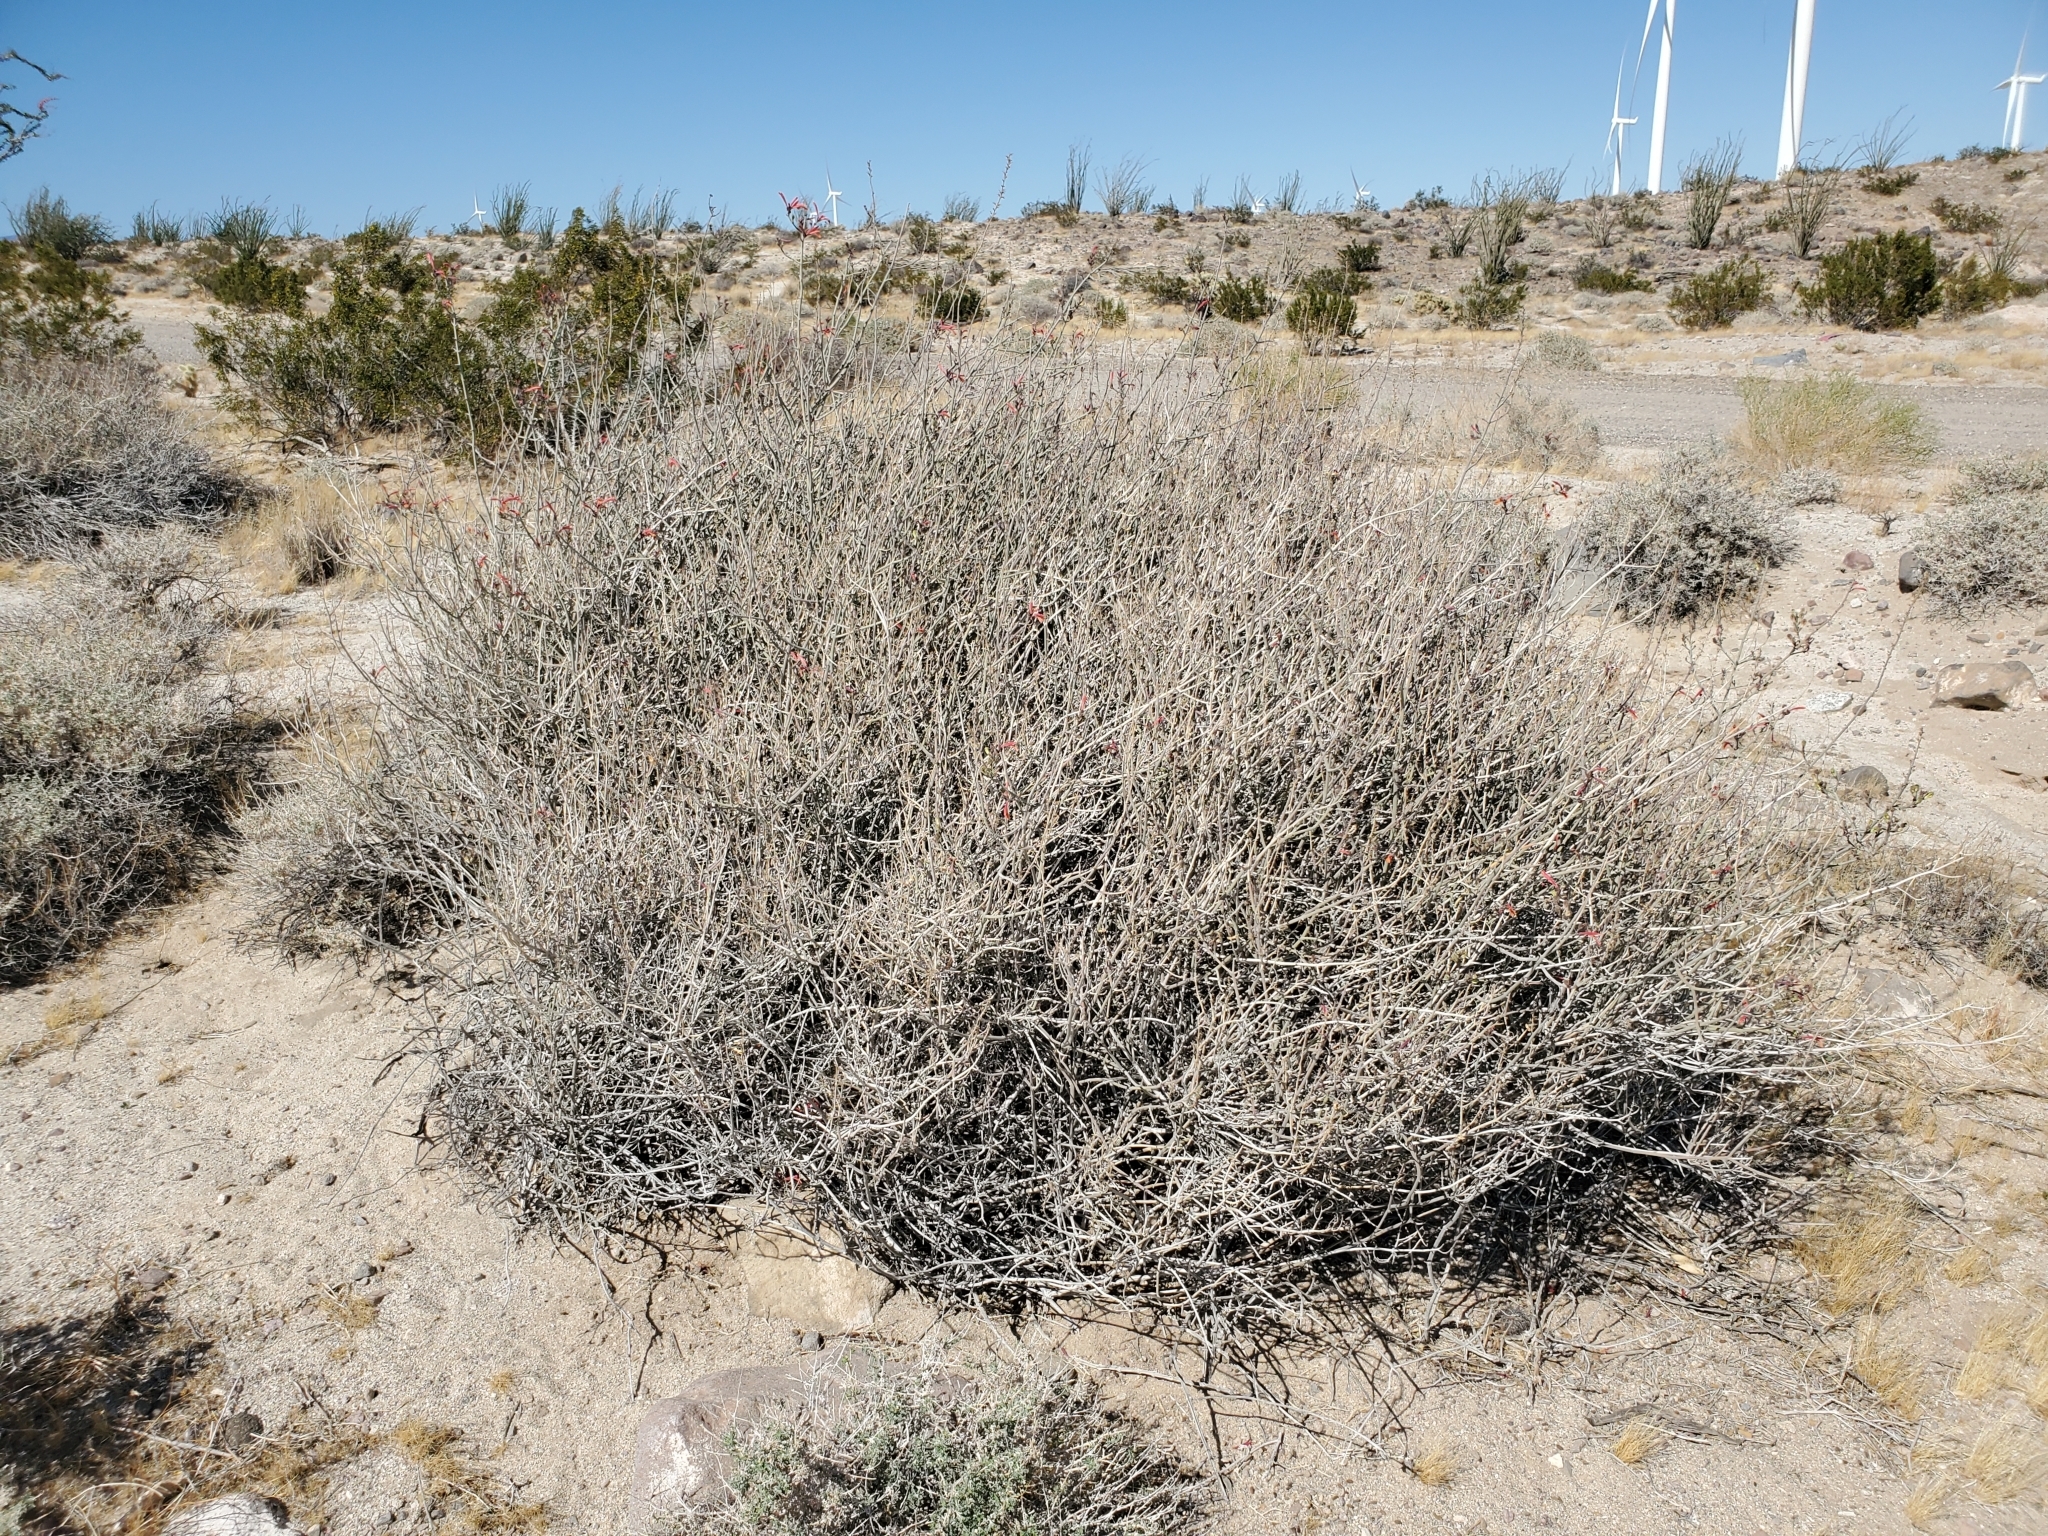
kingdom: Plantae
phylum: Tracheophyta
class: Magnoliopsida
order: Lamiales
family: Acanthaceae
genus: Justicia
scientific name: Justicia californica
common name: Chuparosa-honeysuckle
